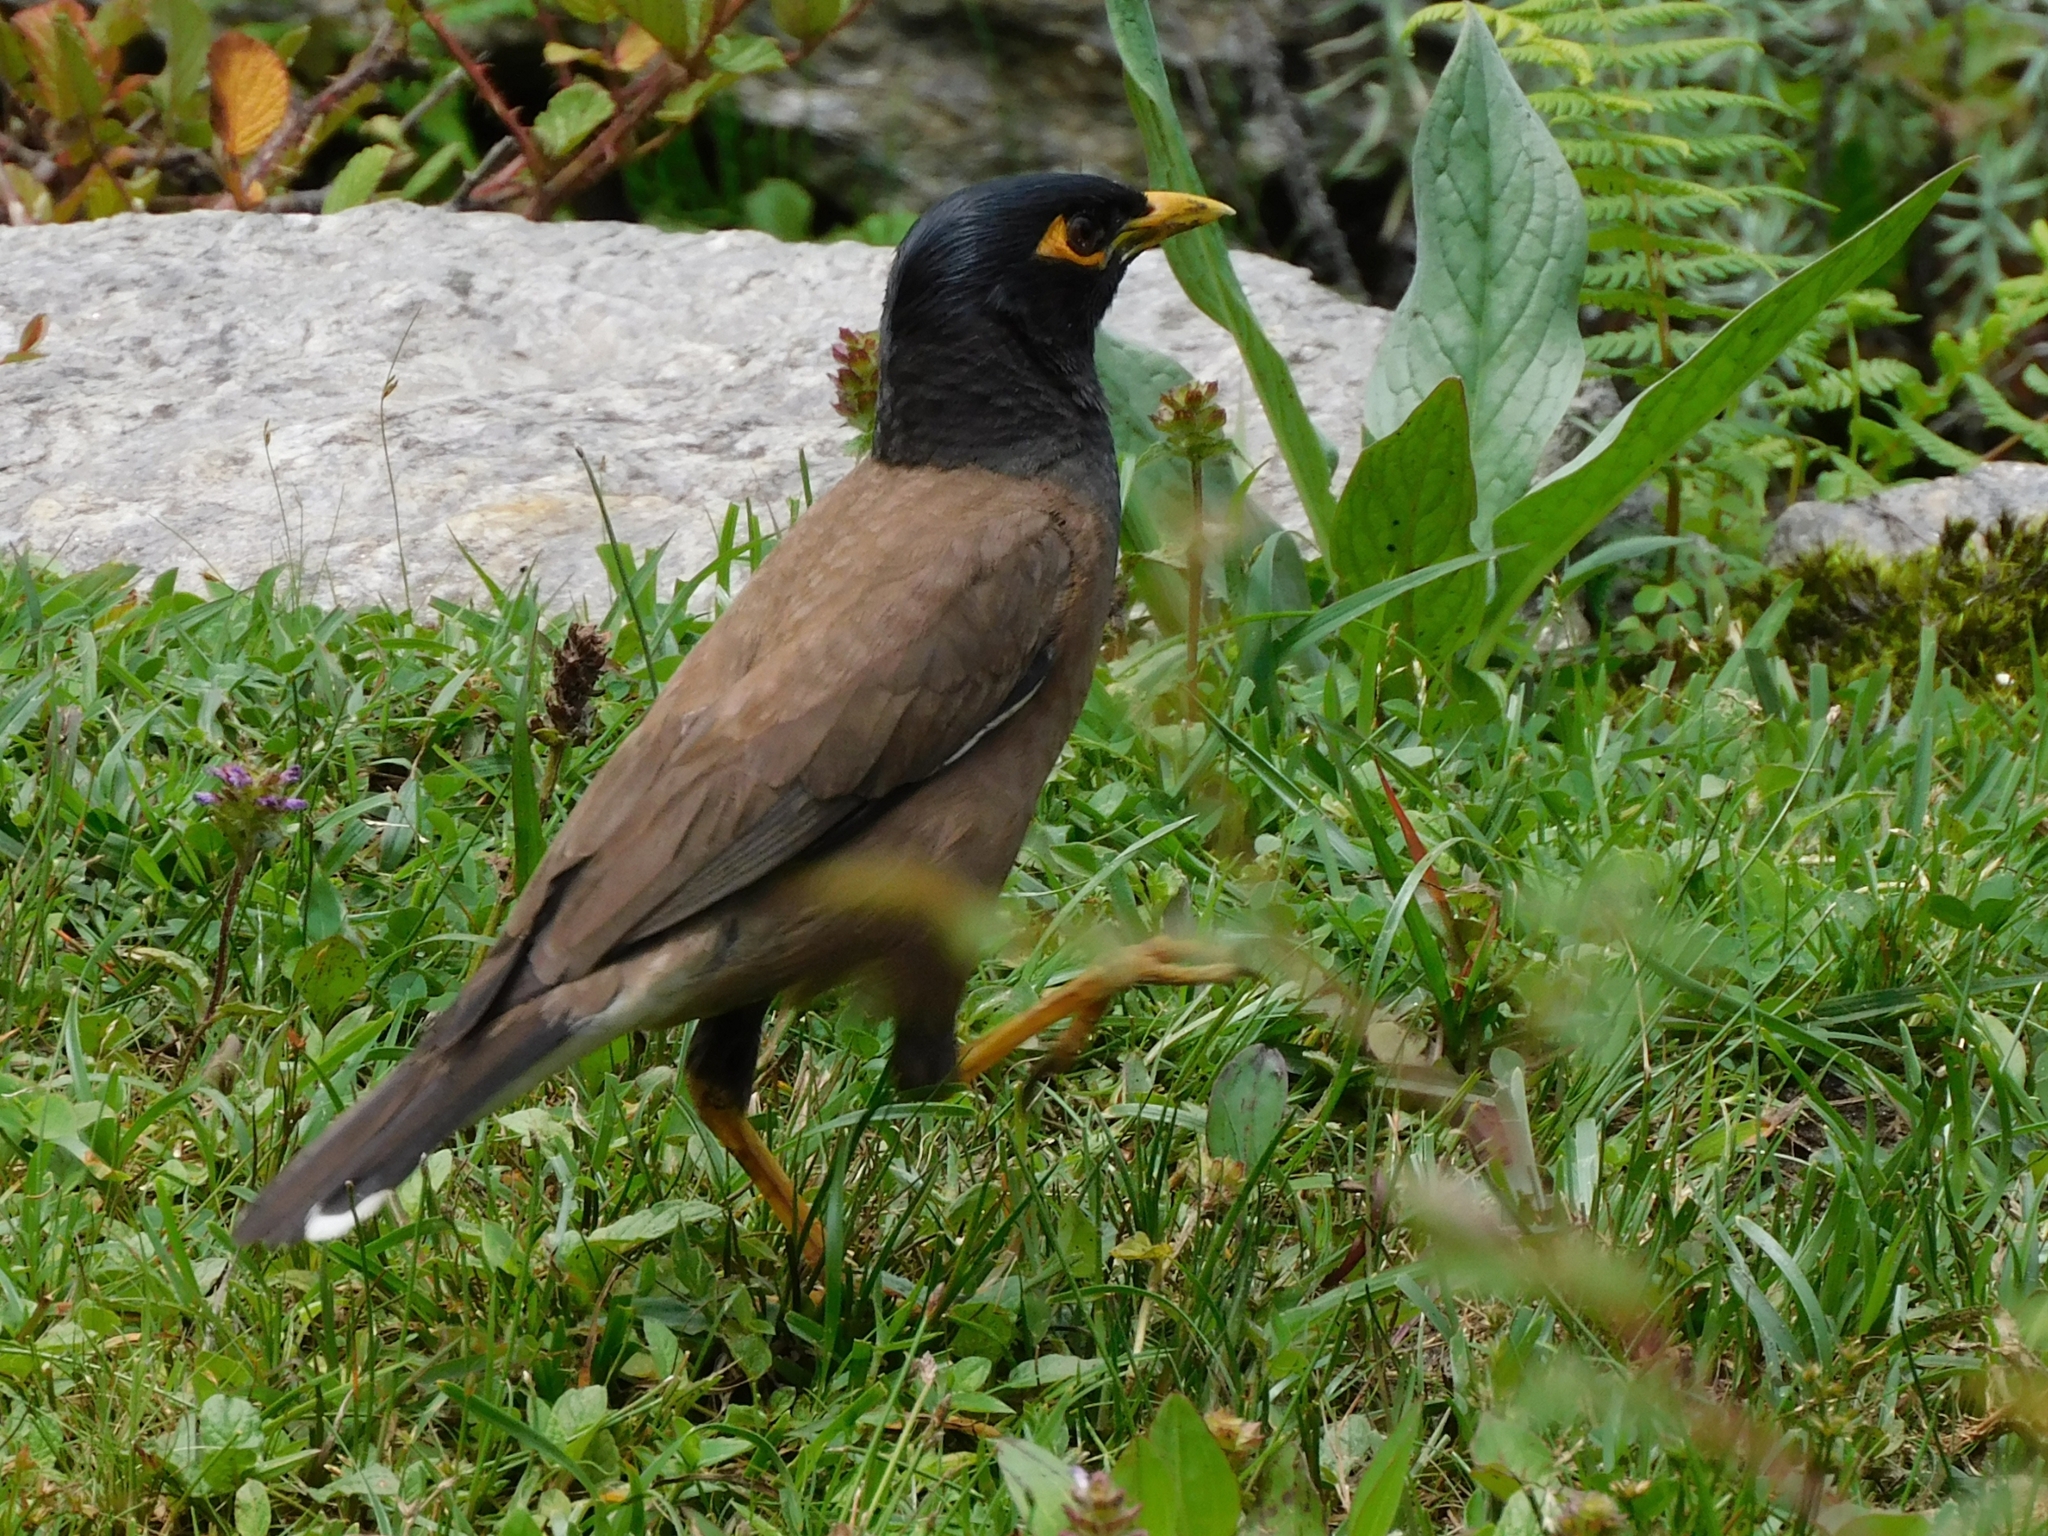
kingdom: Animalia
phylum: Chordata
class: Aves
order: Passeriformes
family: Sturnidae
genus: Acridotheres
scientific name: Acridotheres tristis
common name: Common myna
